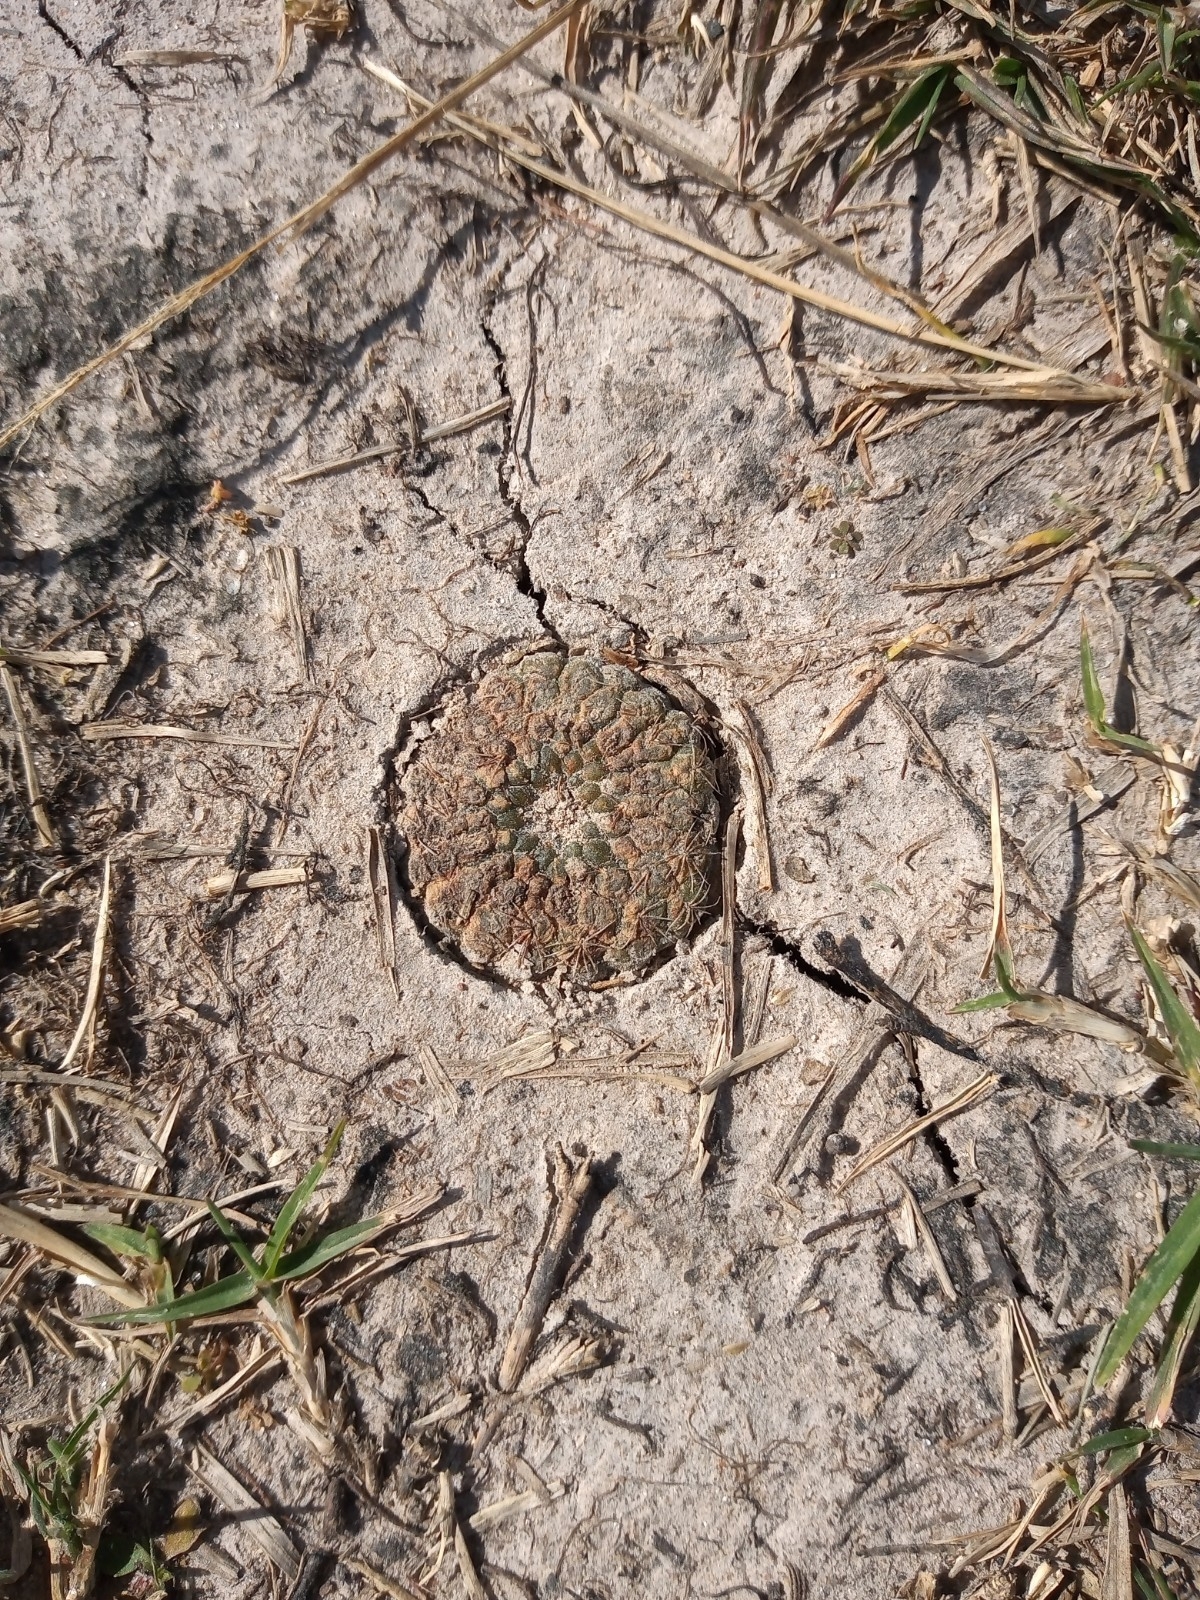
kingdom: Plantae
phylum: Tracheophyta
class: Magnoliopsida
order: Caryophyllales
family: Cactaceae
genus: Gymnocalycium
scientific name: Gymnocalycium hossei
